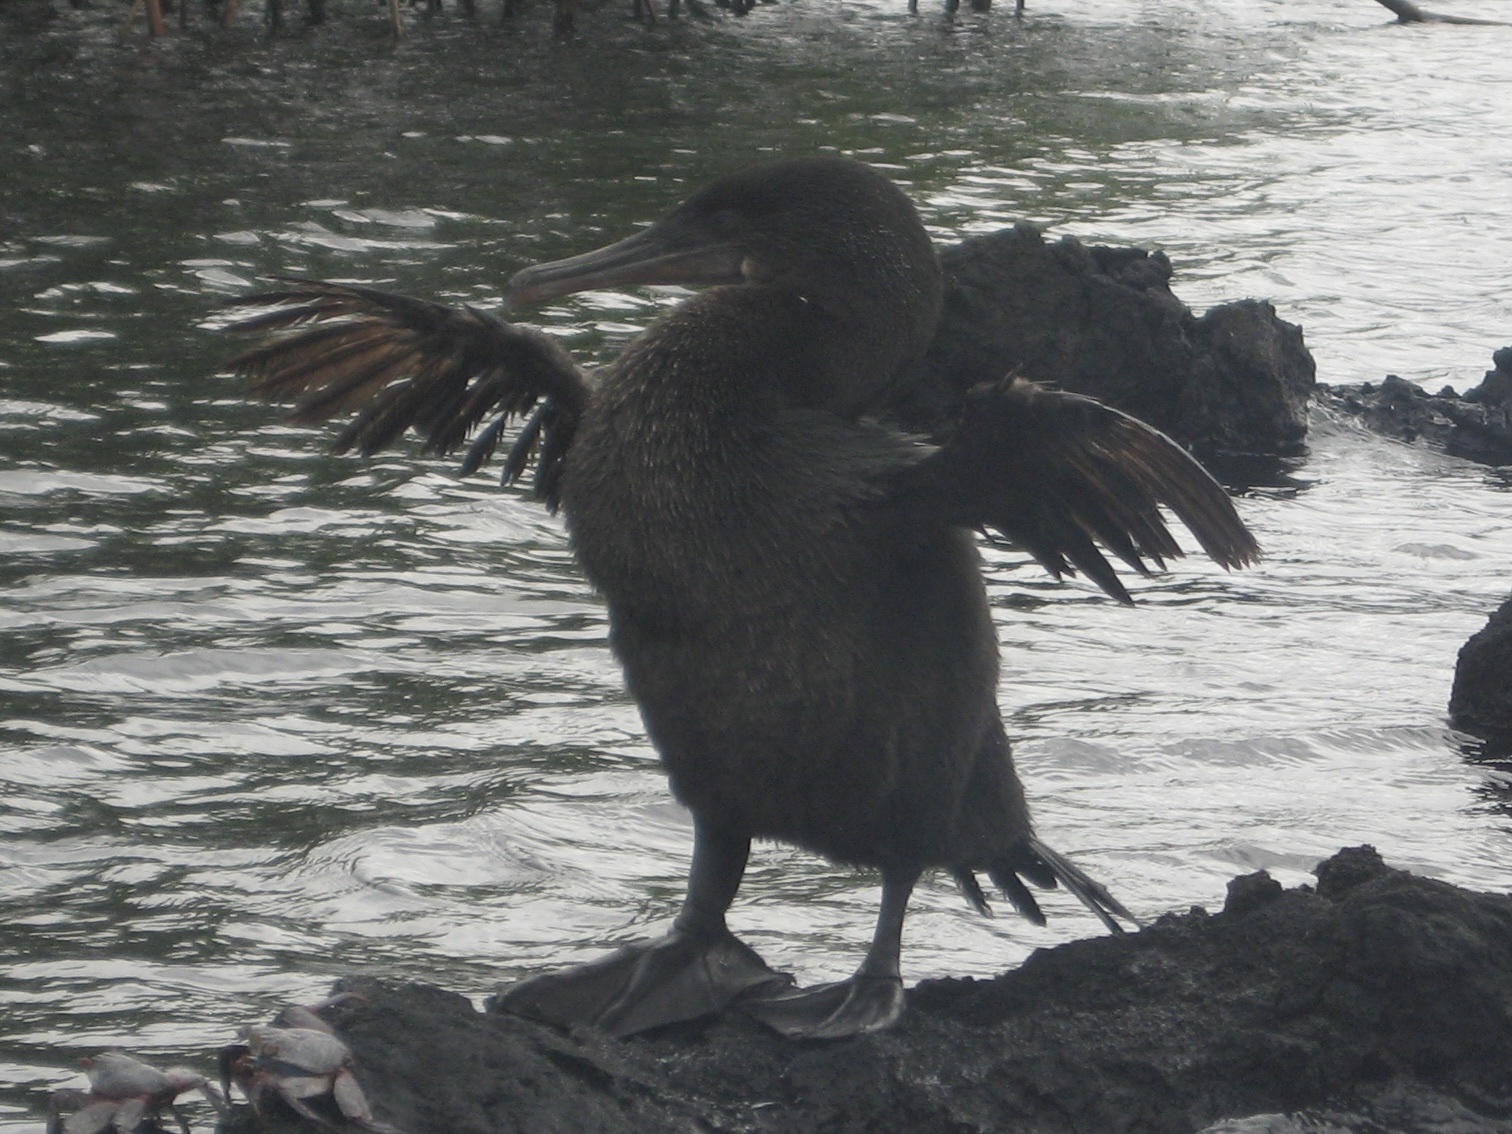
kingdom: Animalia
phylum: Chordata
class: Aves
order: Suliformes
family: Phalacrocoracidae
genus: Phalacrocorax
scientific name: Phalacrocorax harrisi
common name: Flightless cormorant
